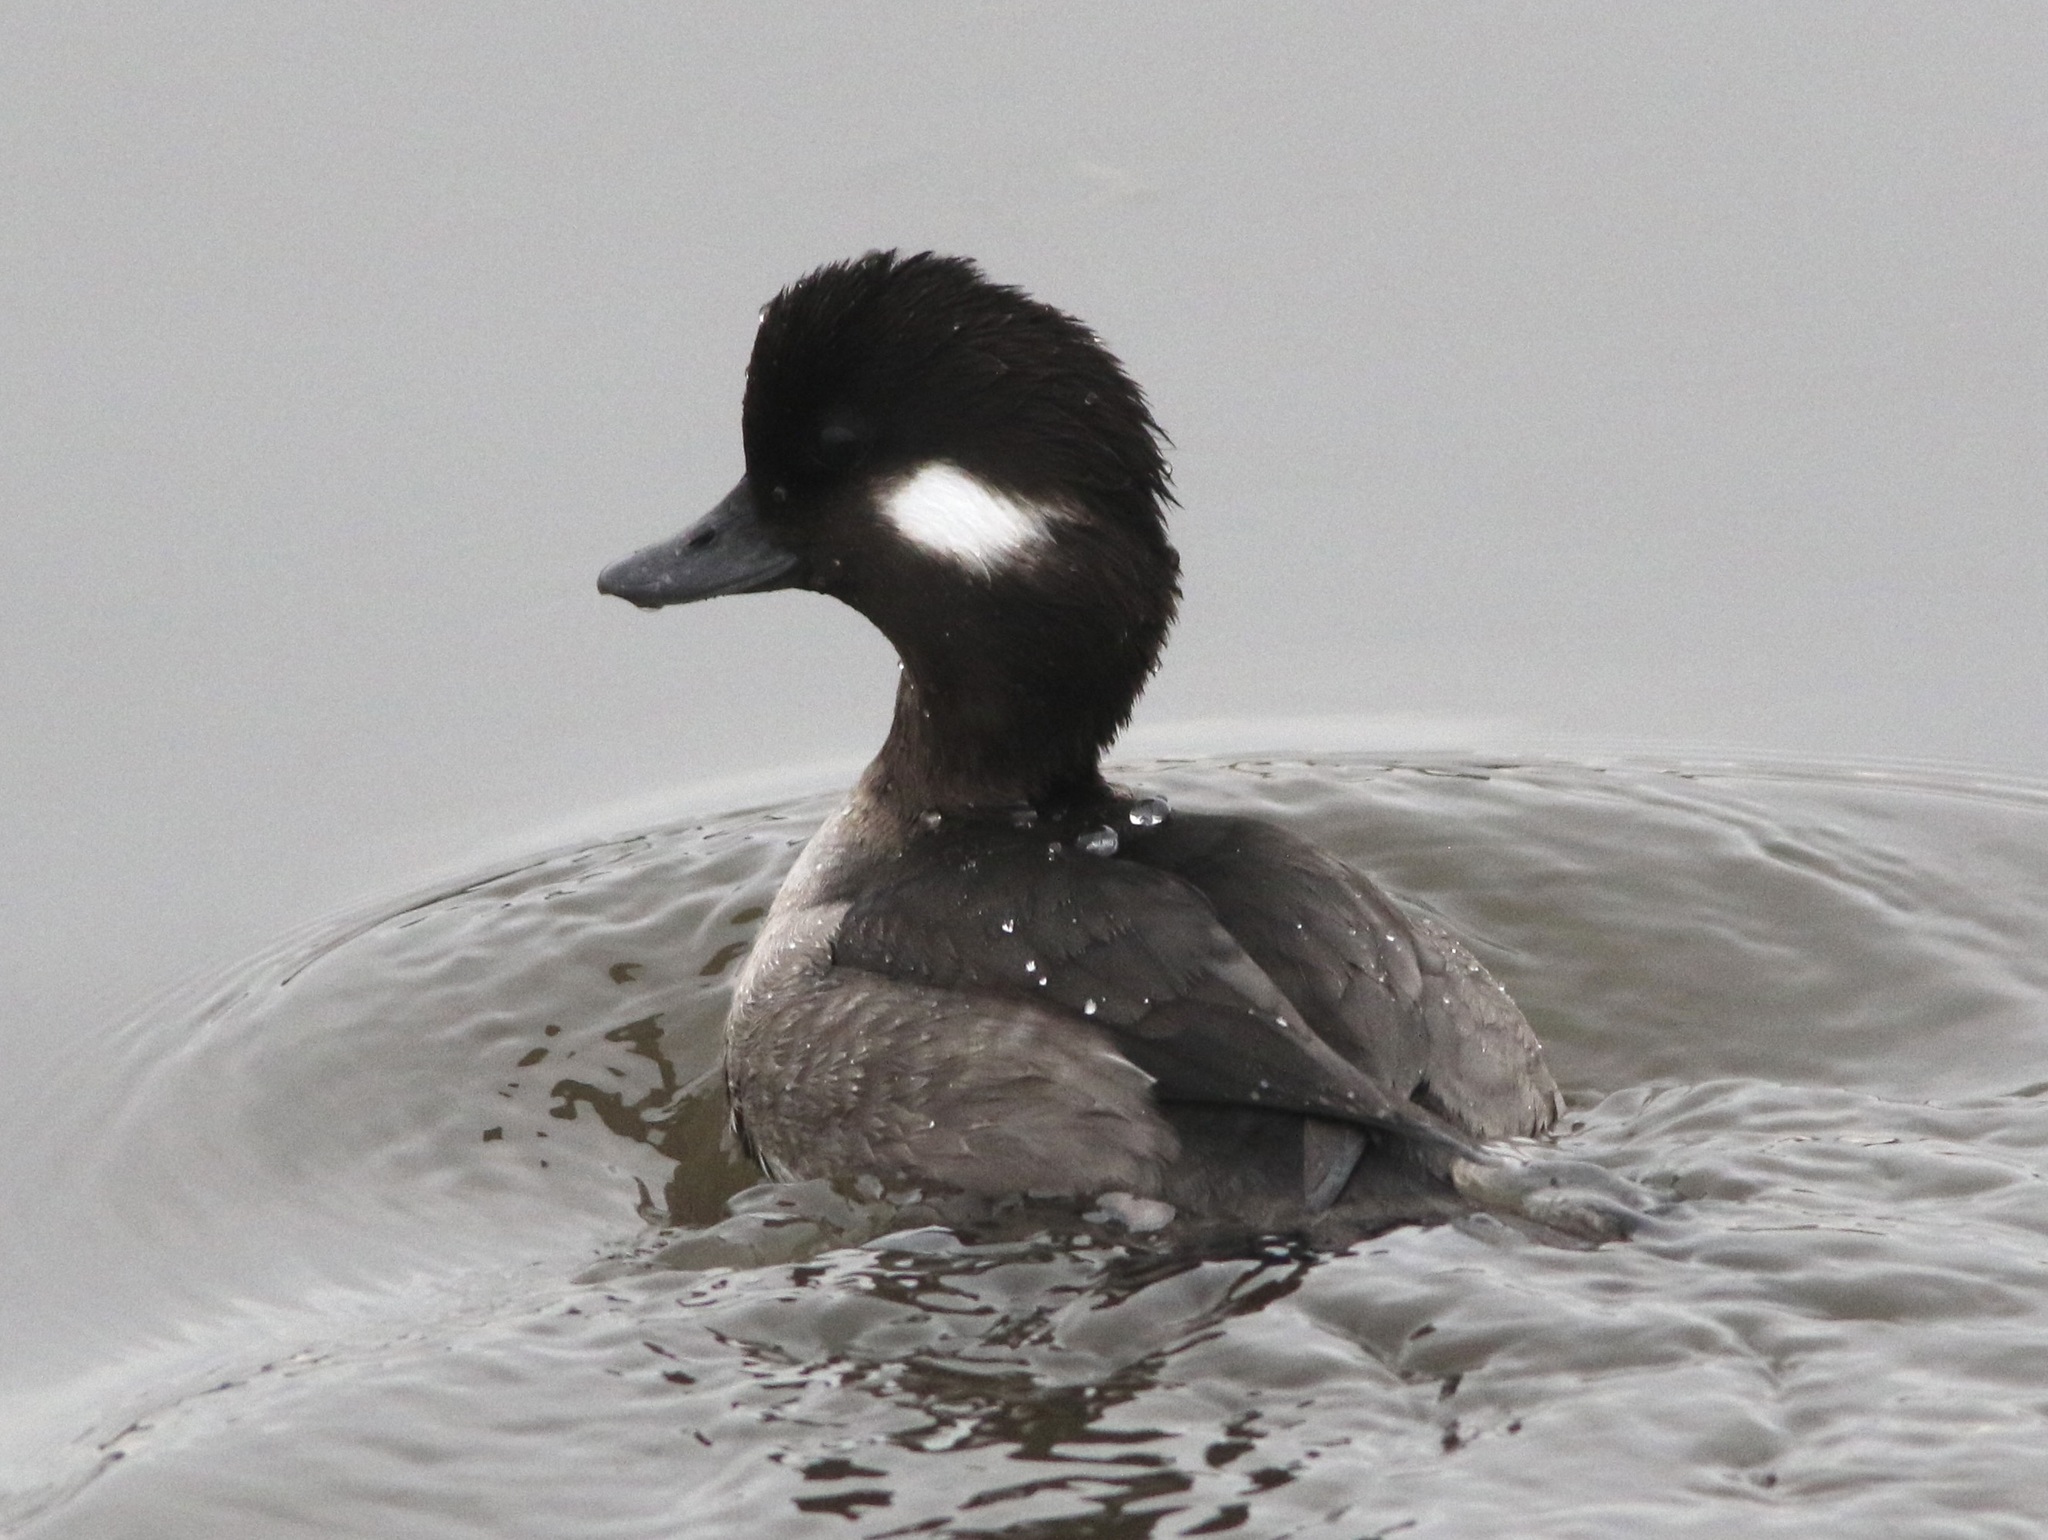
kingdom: Animalia
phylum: Chordata
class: Aves
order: Anseriformes
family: Anatidae
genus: Bucephala
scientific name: Bucephala albeola
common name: Bufflehead
